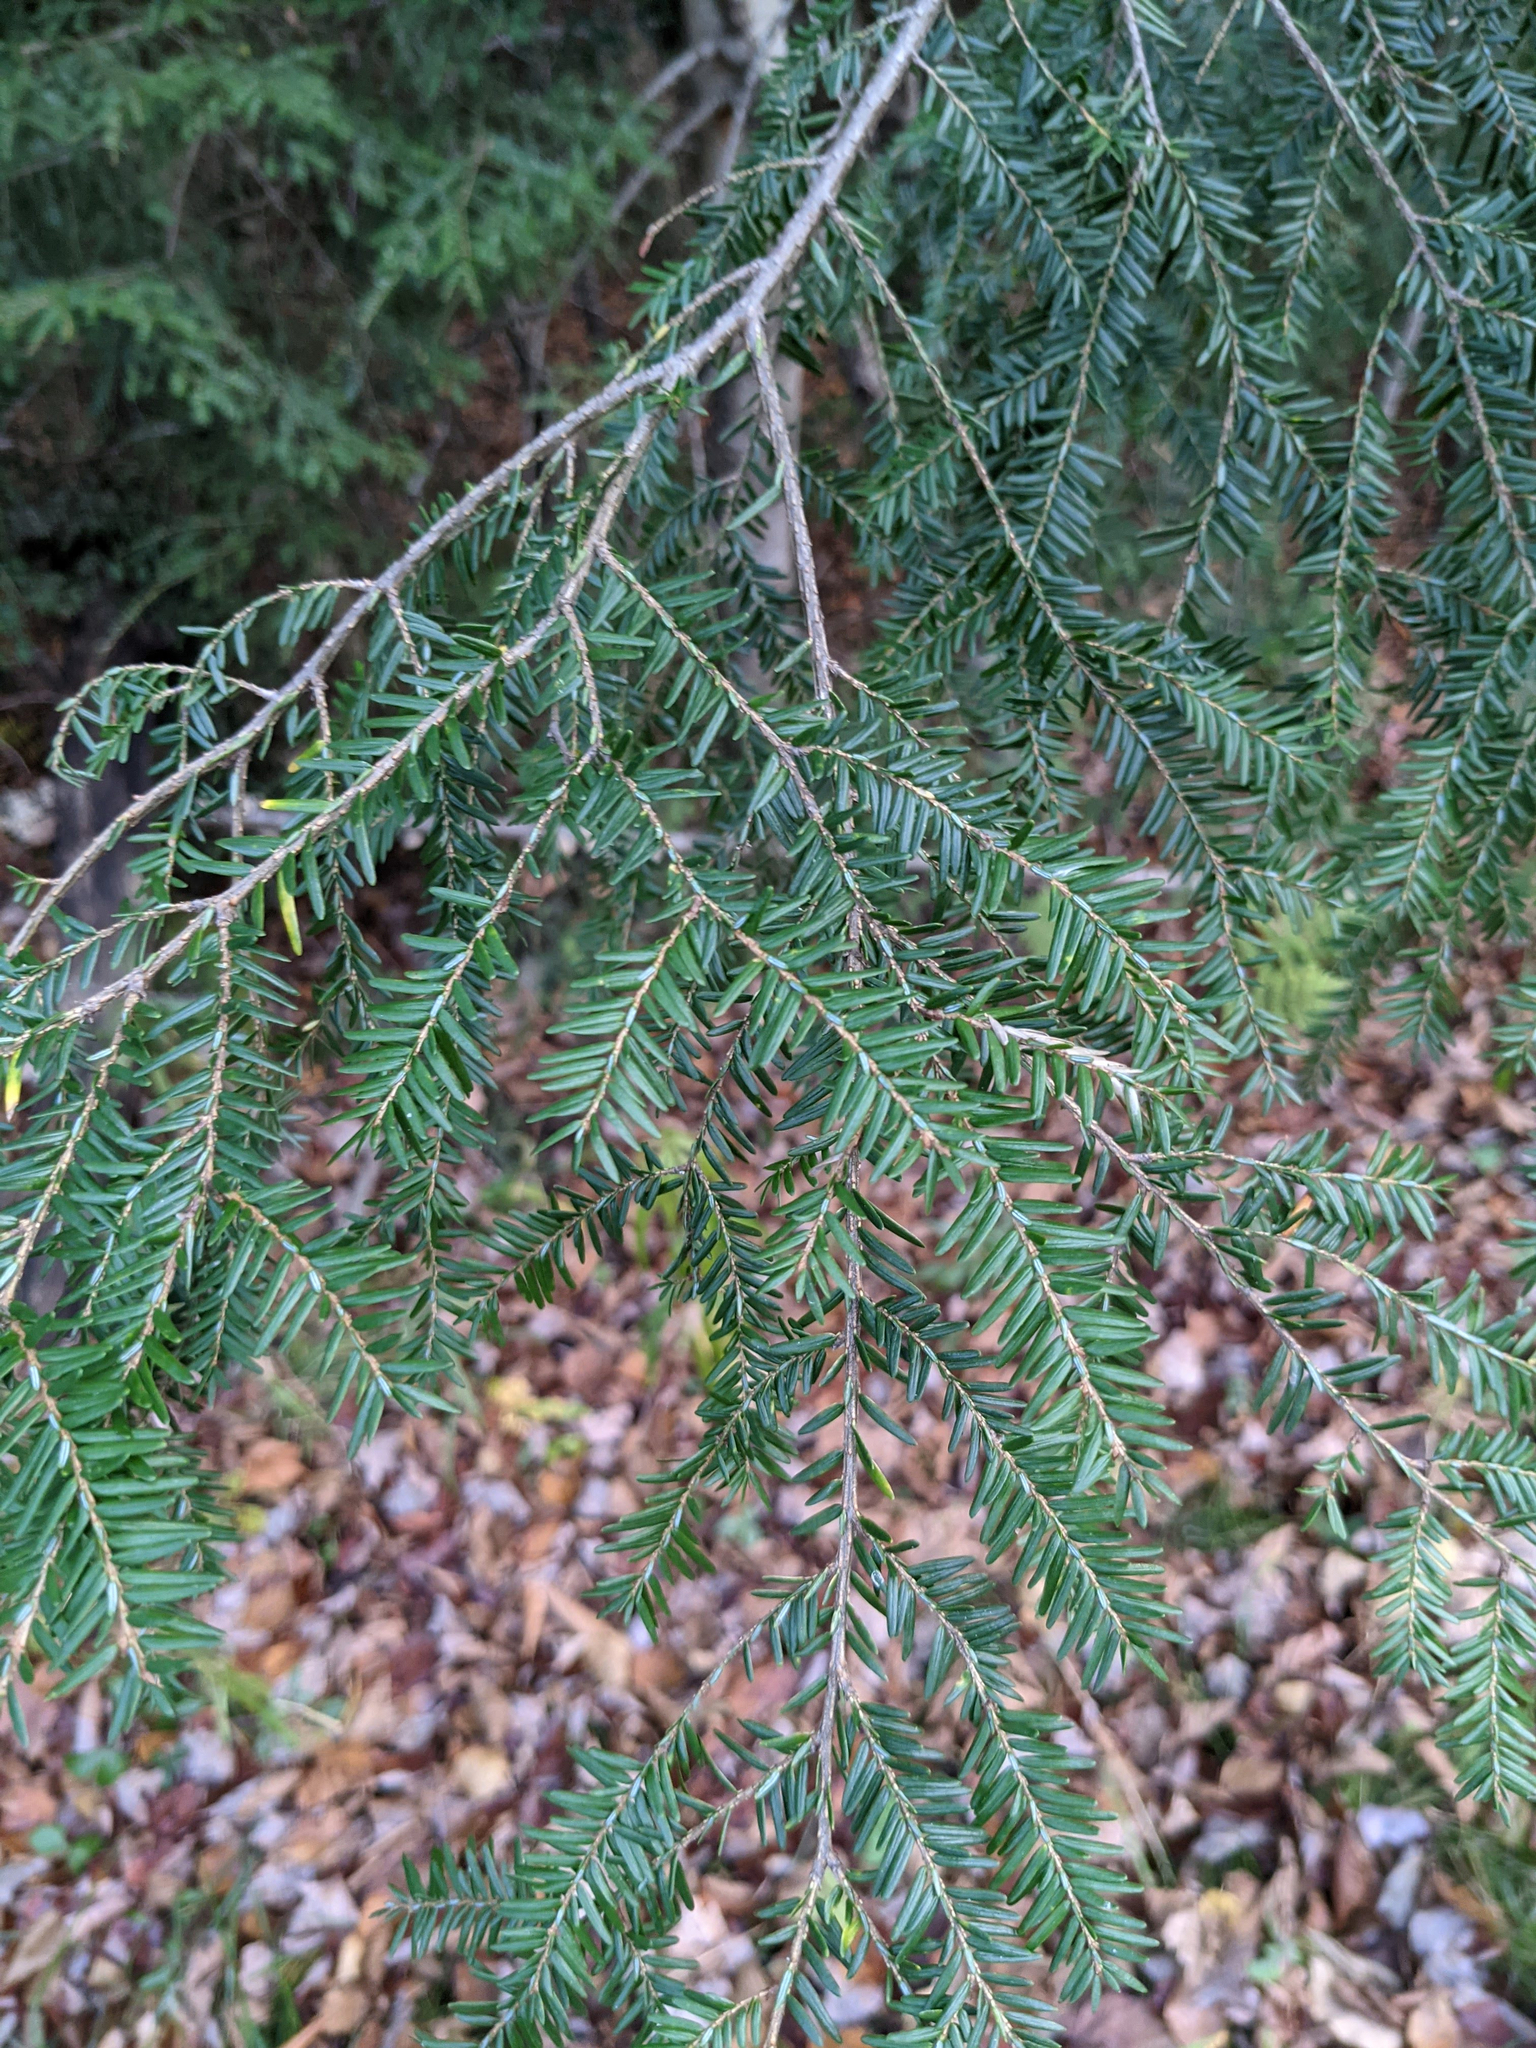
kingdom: Plantae
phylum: Tracheophyta
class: Pinopsida
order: Pinales
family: Pinaceae
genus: Tsuga
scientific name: Tsuga canadensis
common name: Eastern hemlock
